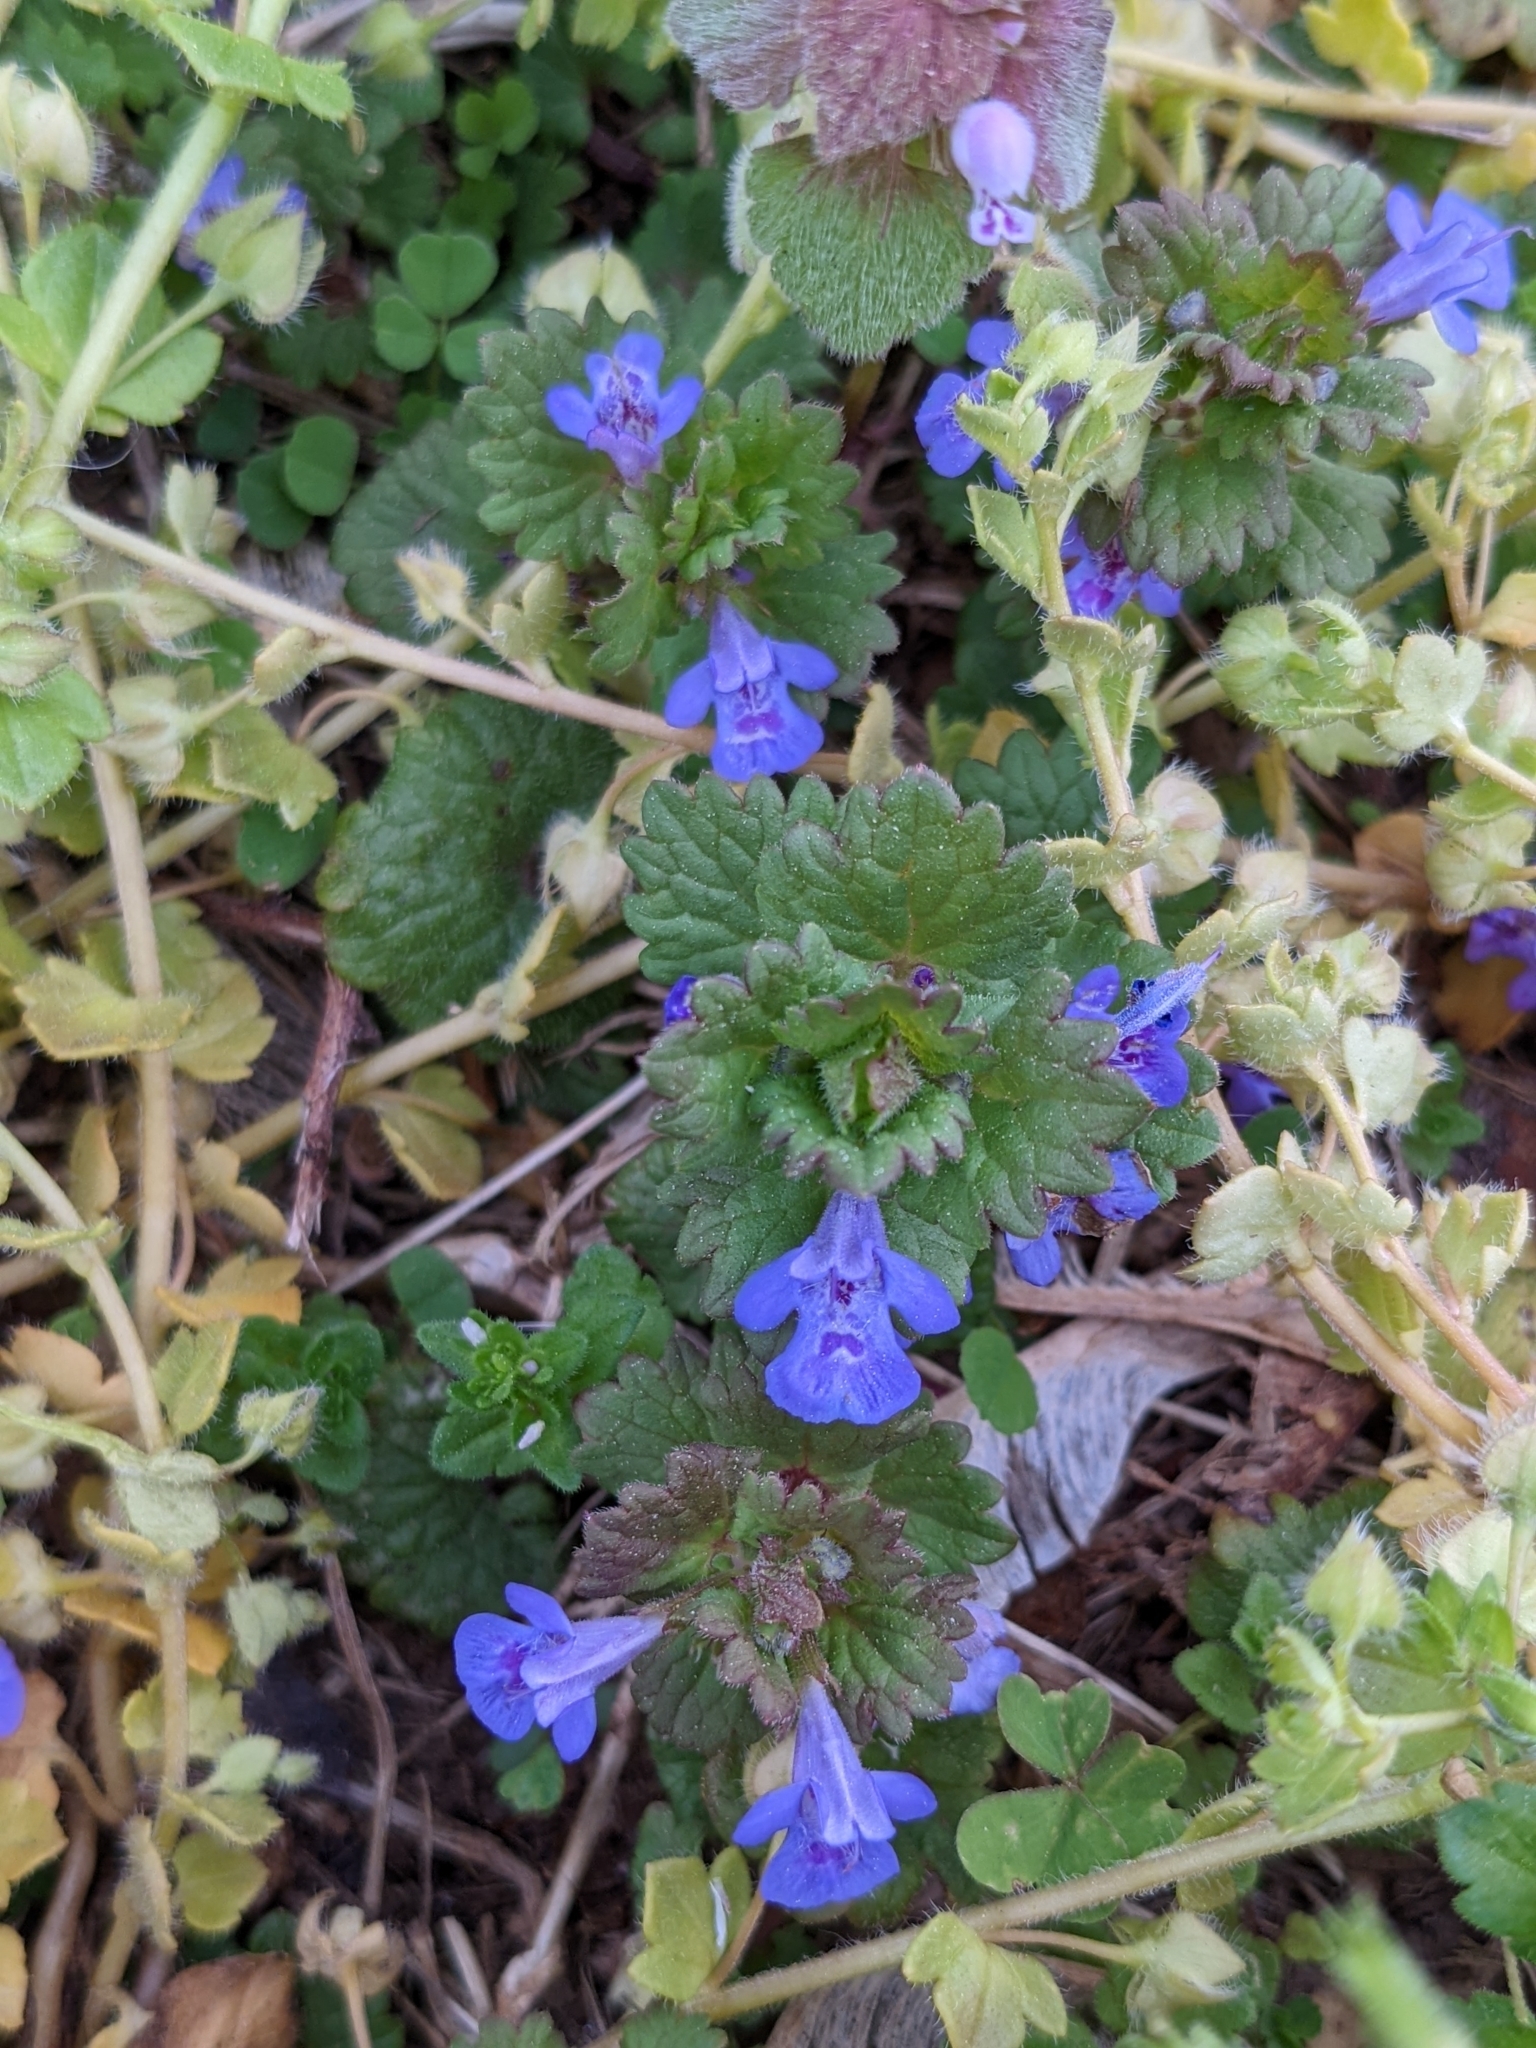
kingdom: Plantae
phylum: Tracheophyta
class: Magnoliopsida
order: Lamiales
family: Lamiaceae
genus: Glechoma
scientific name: Glechoma hederacea
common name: Ground ivy
